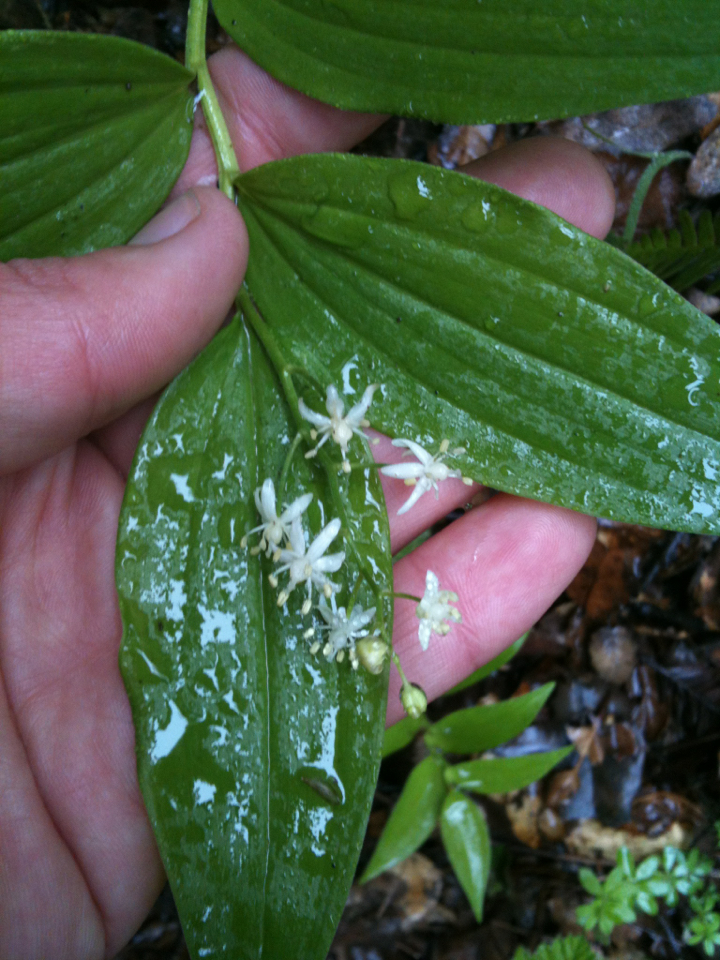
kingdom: Plantae
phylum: Tracheophyta
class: Liliopsida
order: Asparagales
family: Asparagaceae
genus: Maianthemum
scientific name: Maianthemum stellatum
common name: Little false solomon's seal
